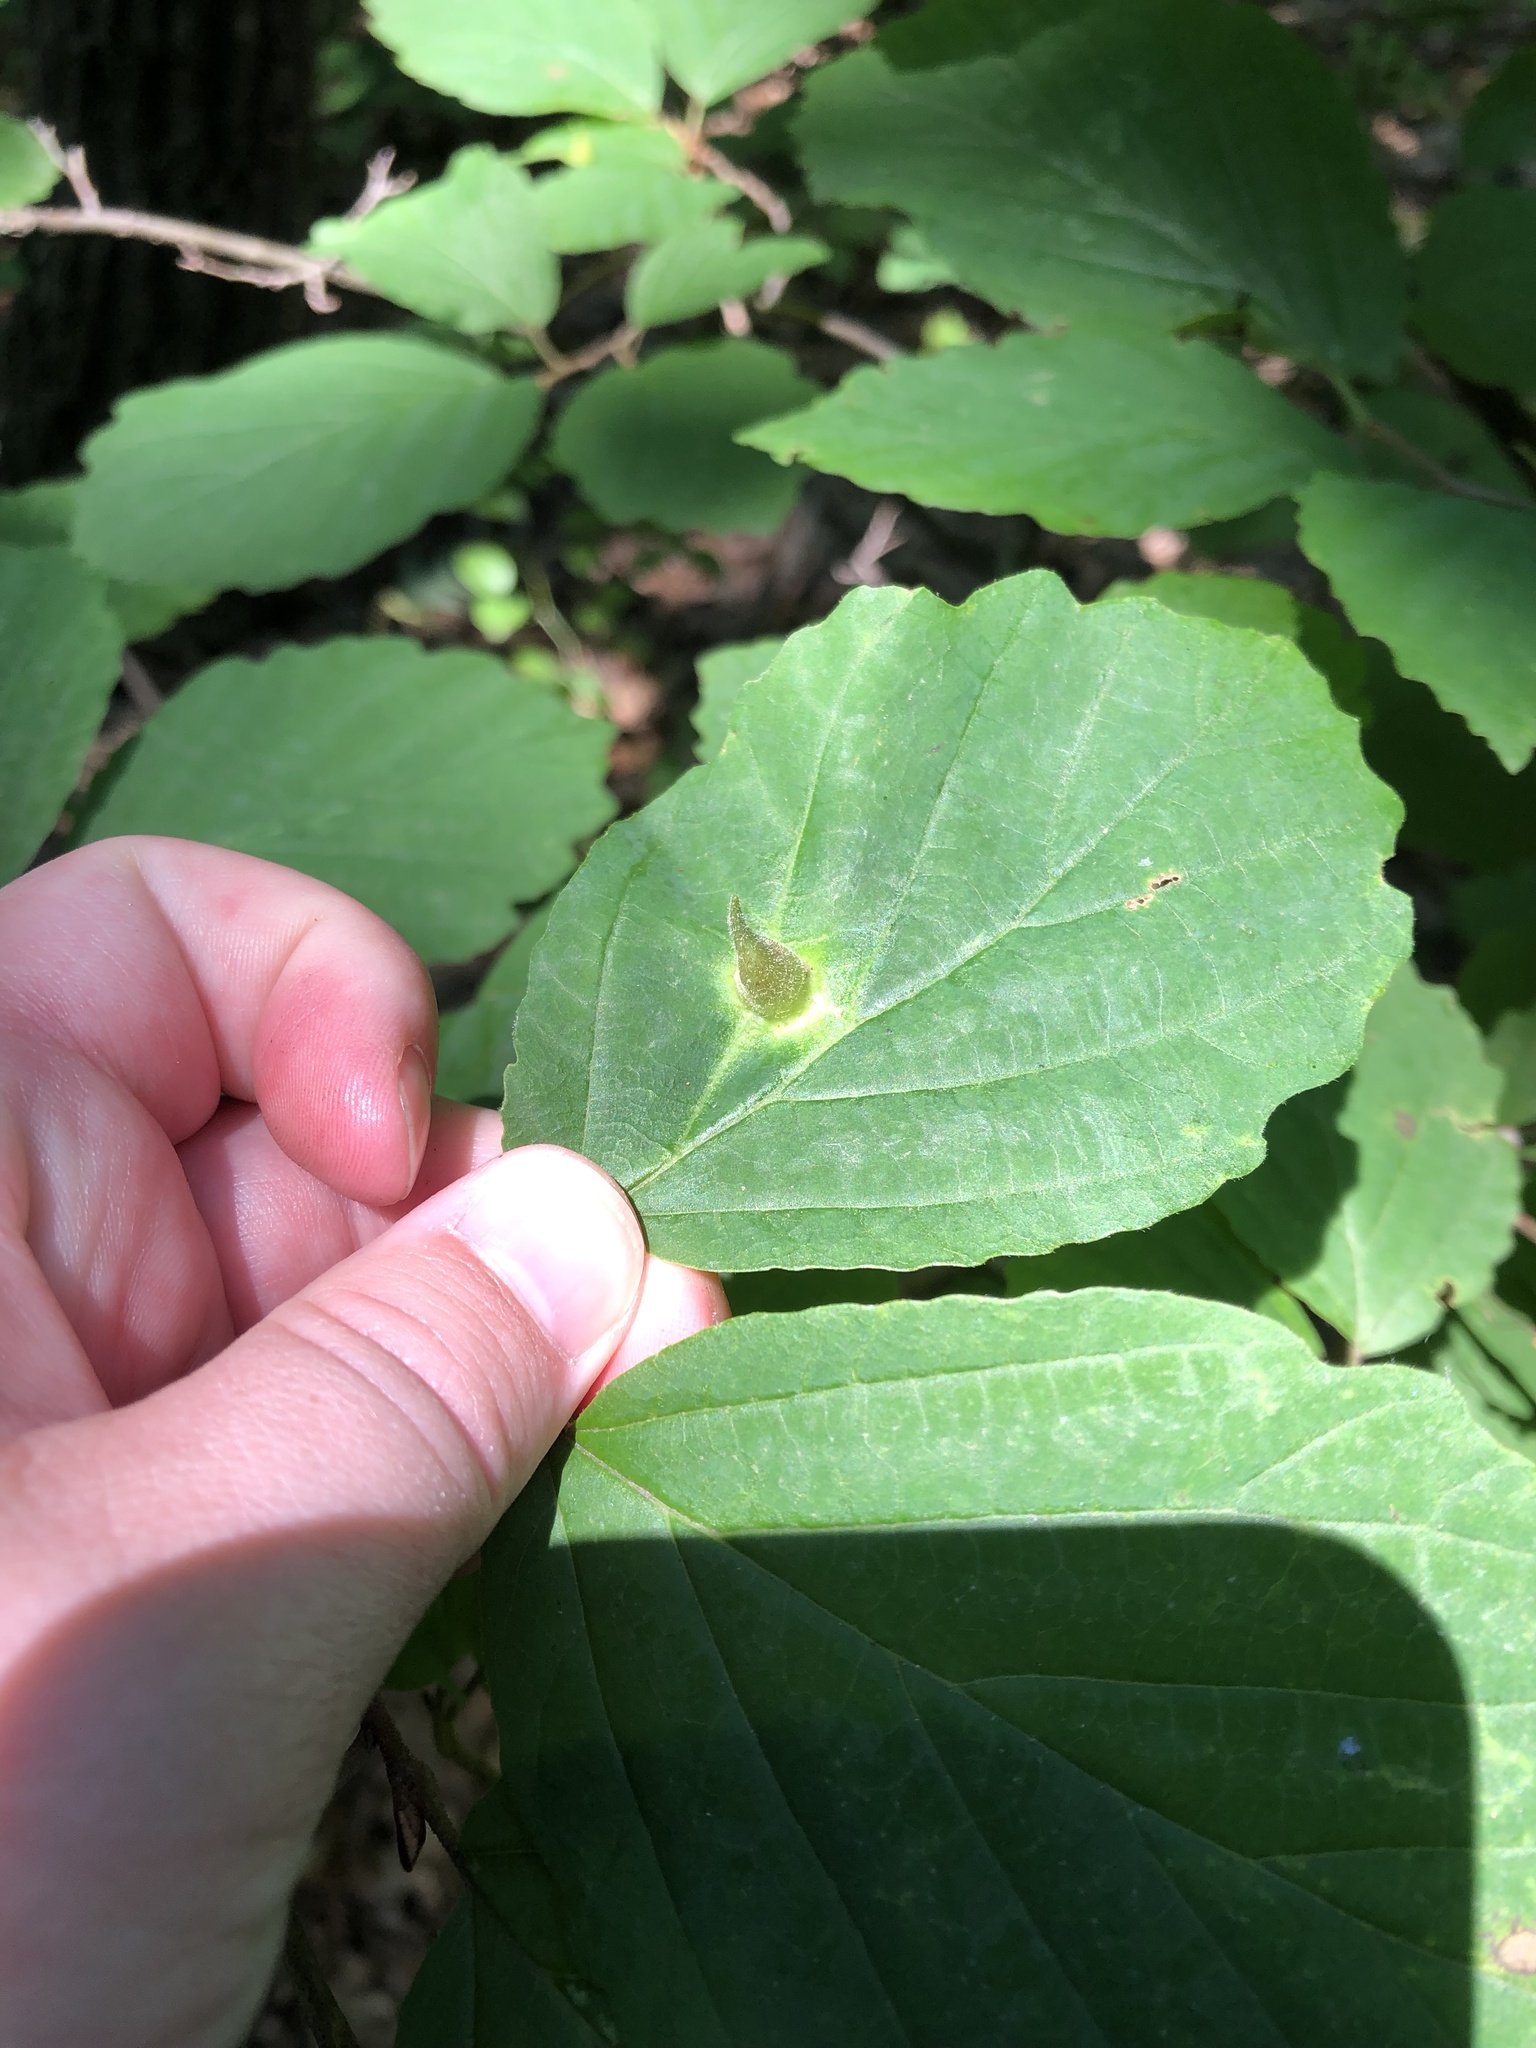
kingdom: Animalia
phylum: Arthropoda
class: Insecta
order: Hemiptera
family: Aphididae
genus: Hormaphis
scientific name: Hormaphis hamamelidis
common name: Witch-hazel cone gall aphid
